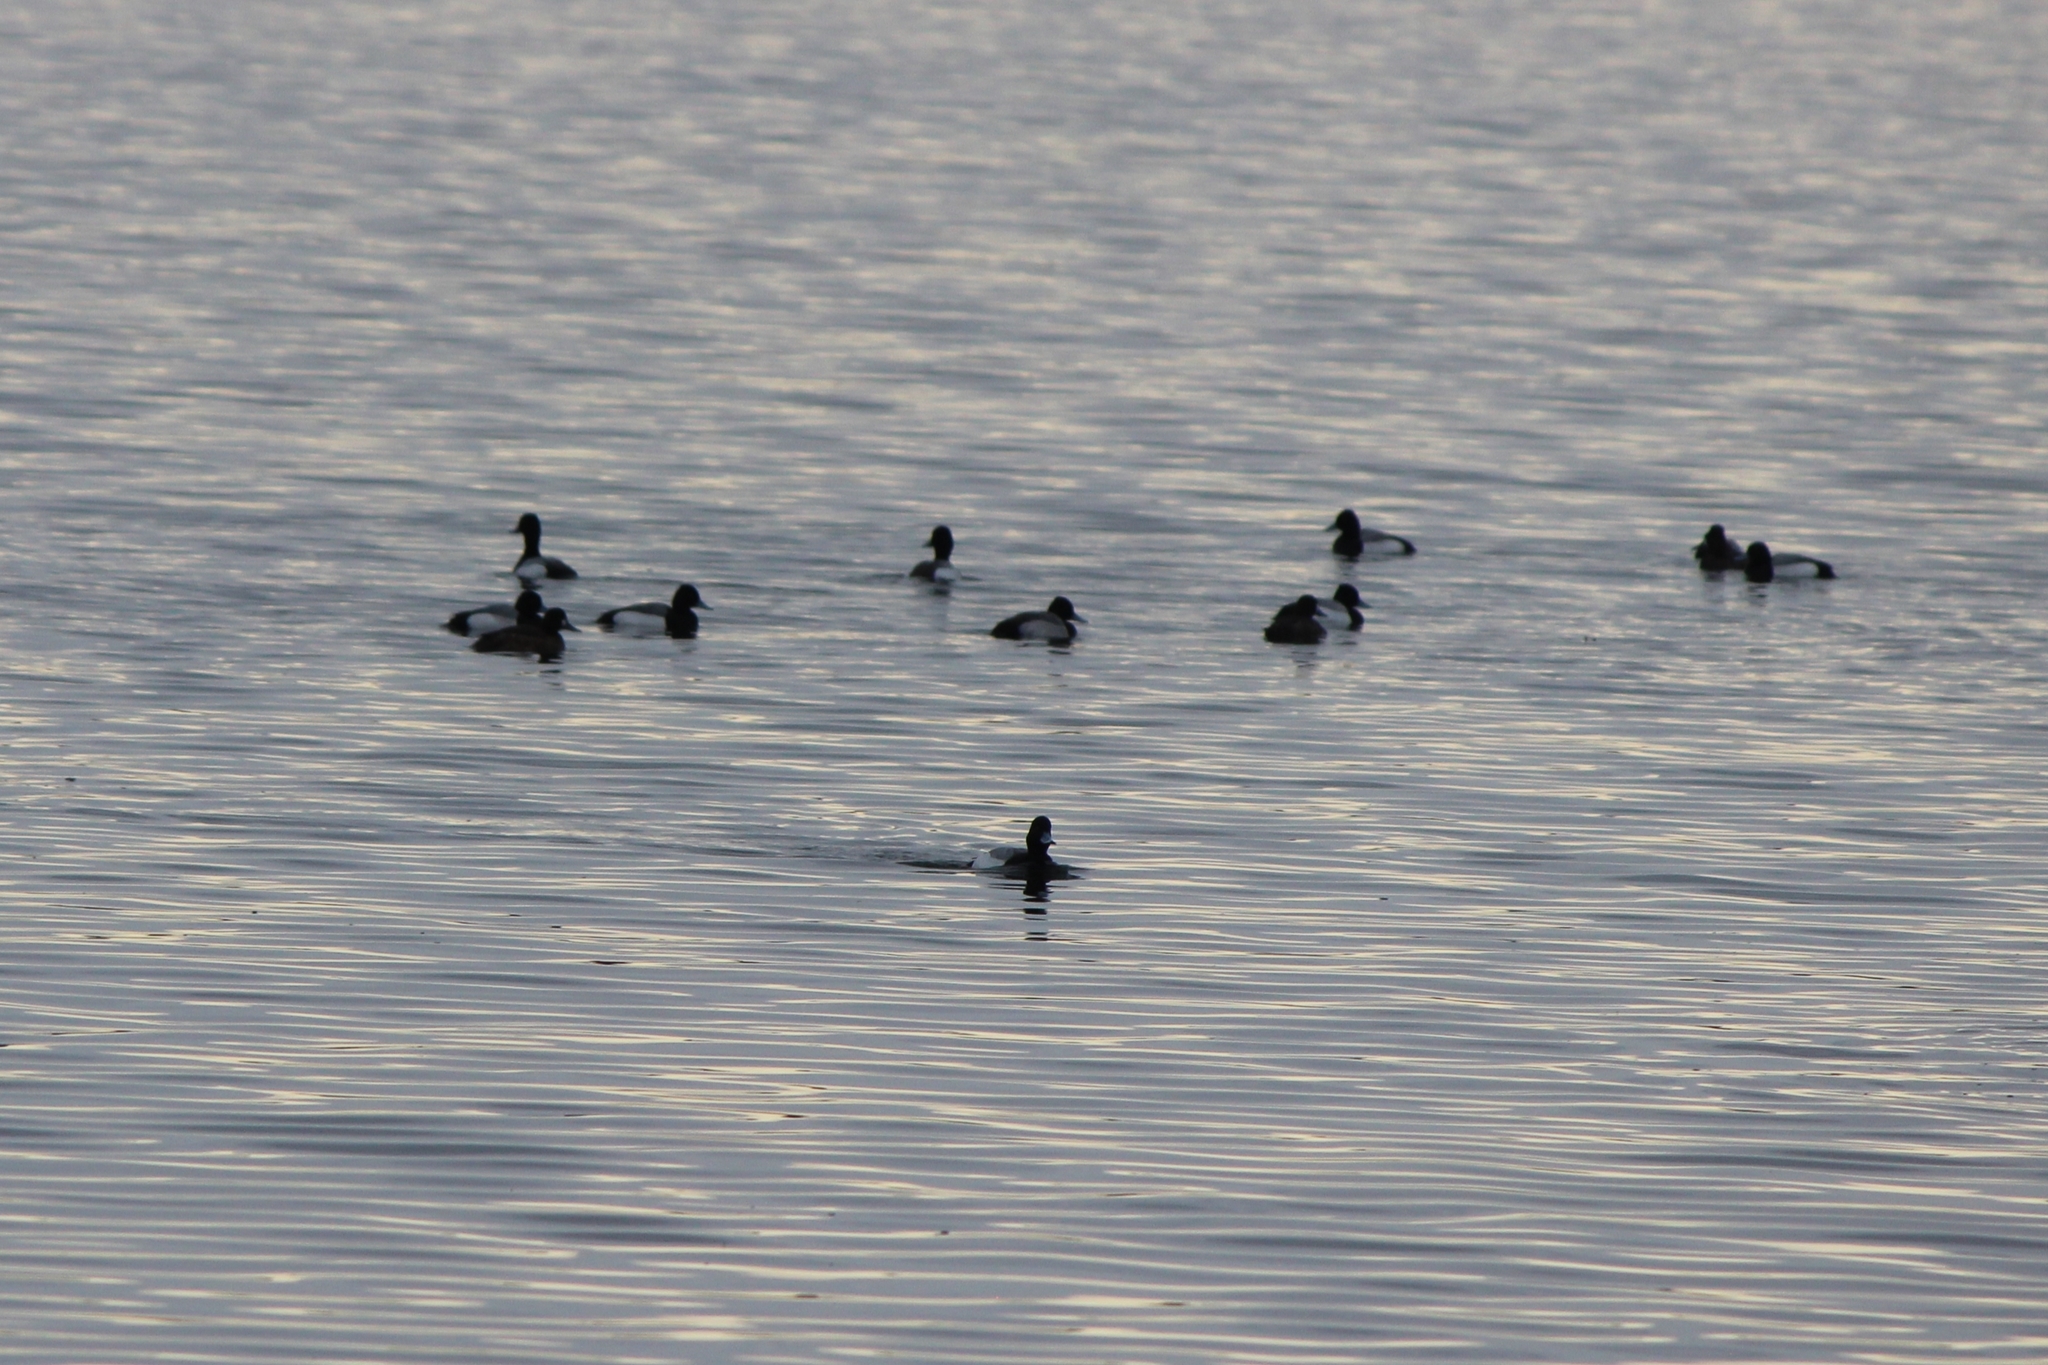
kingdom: Animalia
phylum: Chordata
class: Aves
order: Anseriformes
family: Anatidae
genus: Aythya
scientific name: Aythya affinis
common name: Lesser scaup
